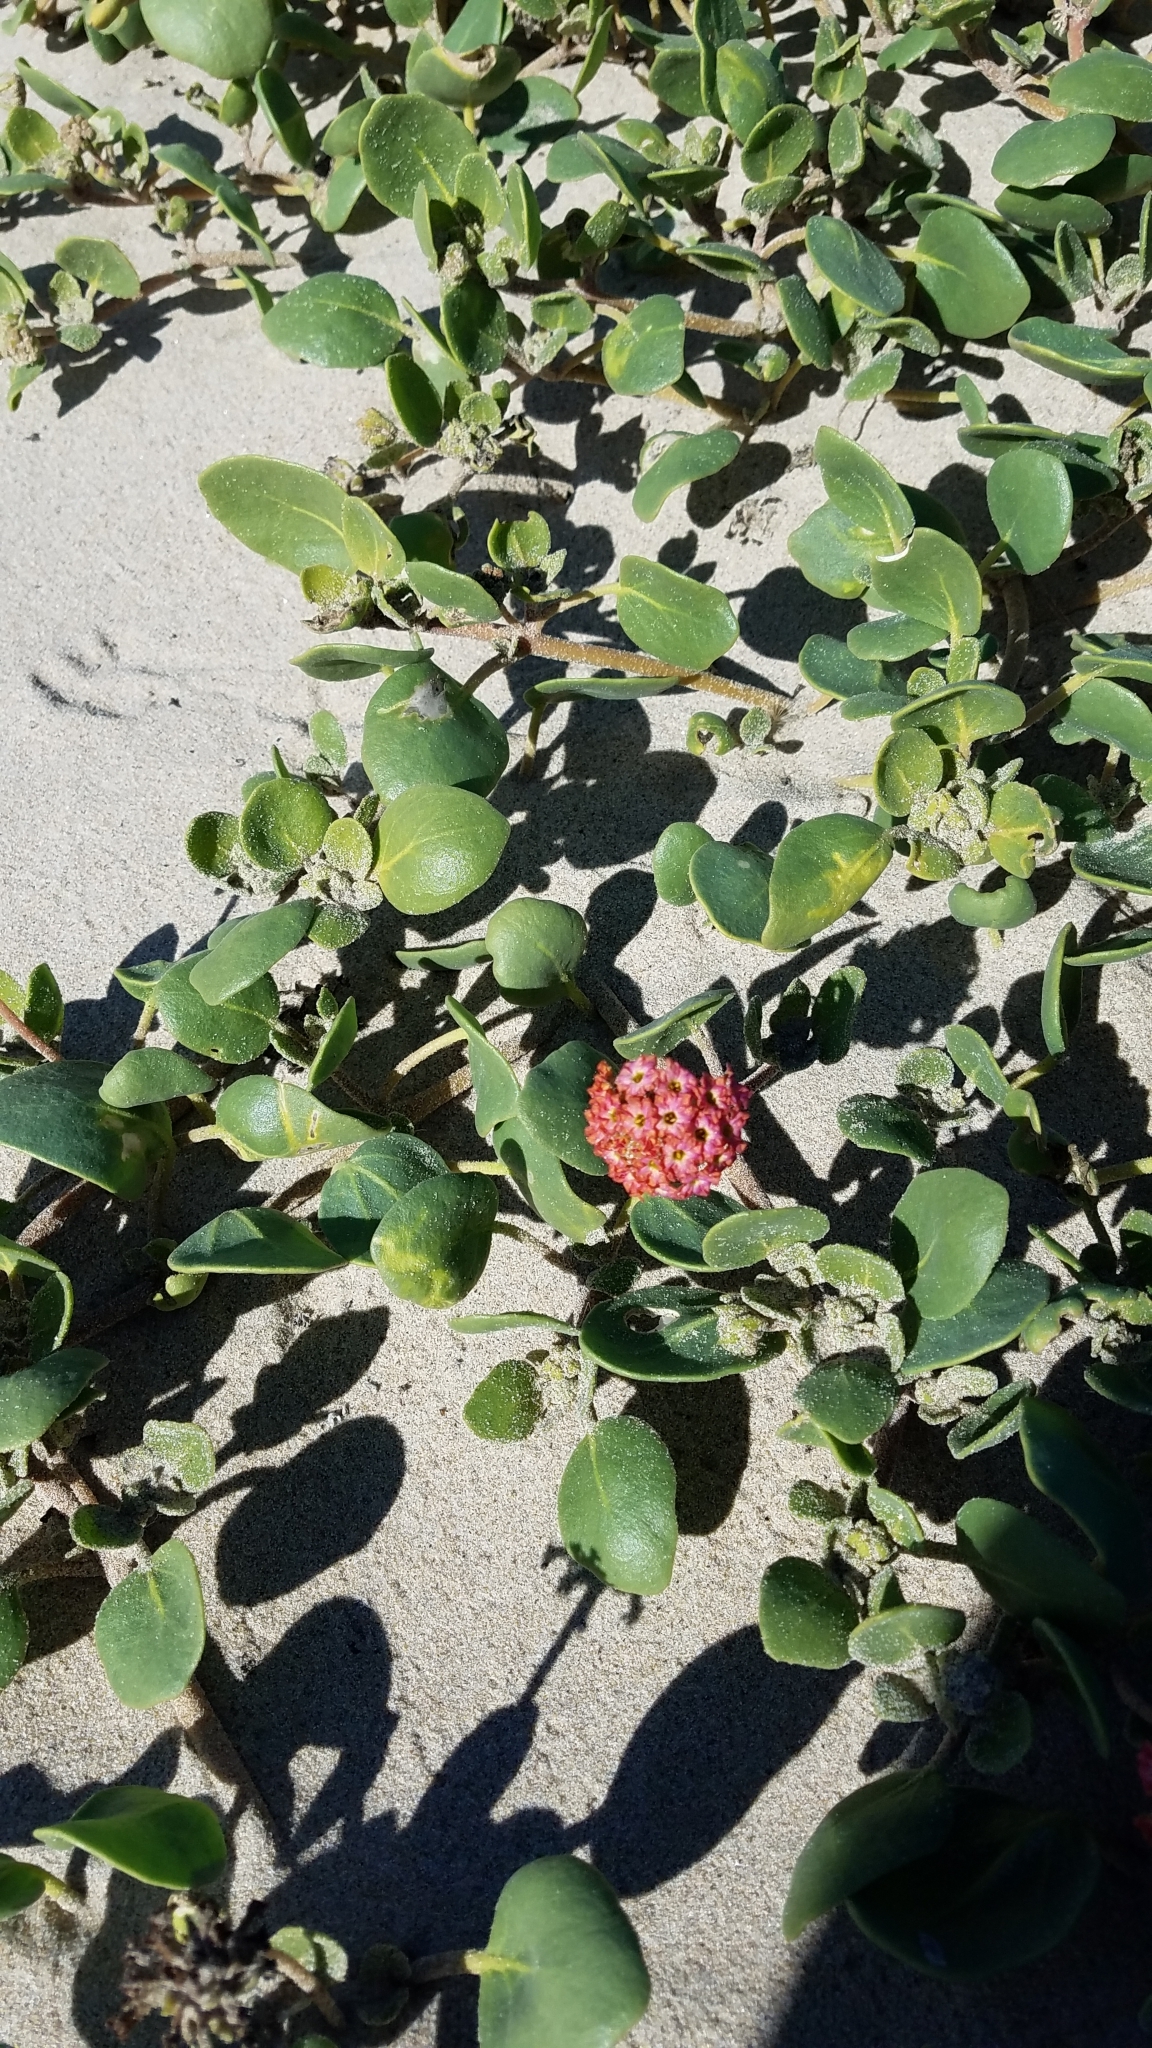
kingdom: Plantae
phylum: Tracheophyta
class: Magnoliopsida
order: Caryophyllales
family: Nyctaginaceae
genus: Abronia
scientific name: Abronia
